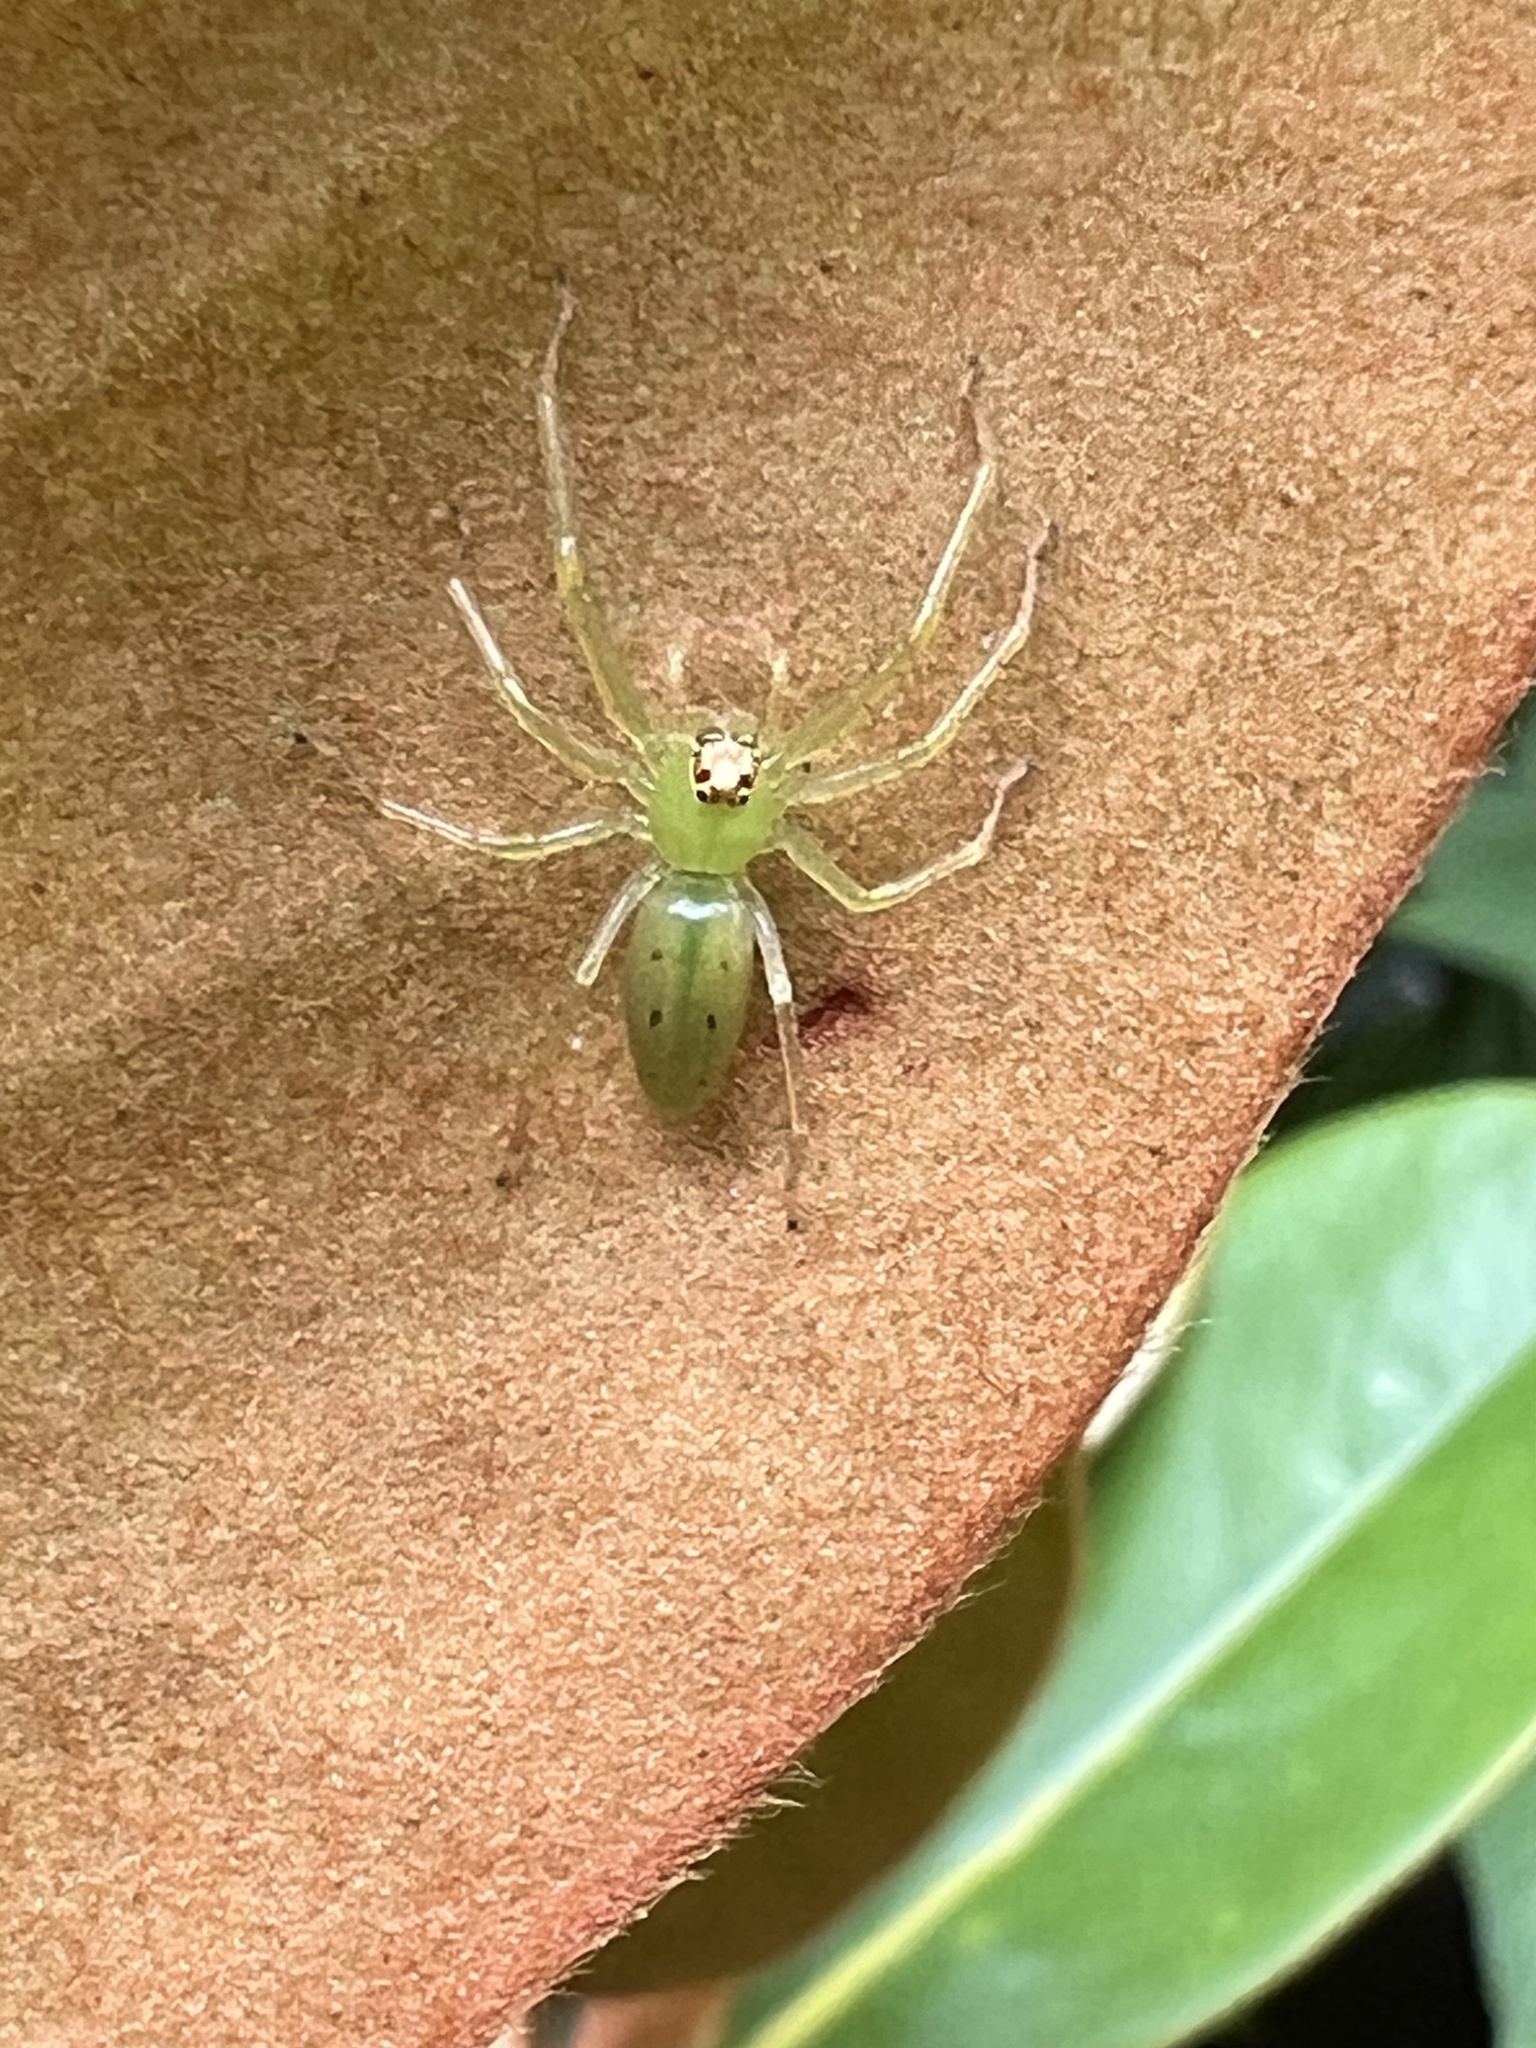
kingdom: Animalia
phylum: Arthropoda
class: Arachnida
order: Araneae
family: Salticidae
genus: Lyssomanes
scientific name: Lyssomanes viridis
